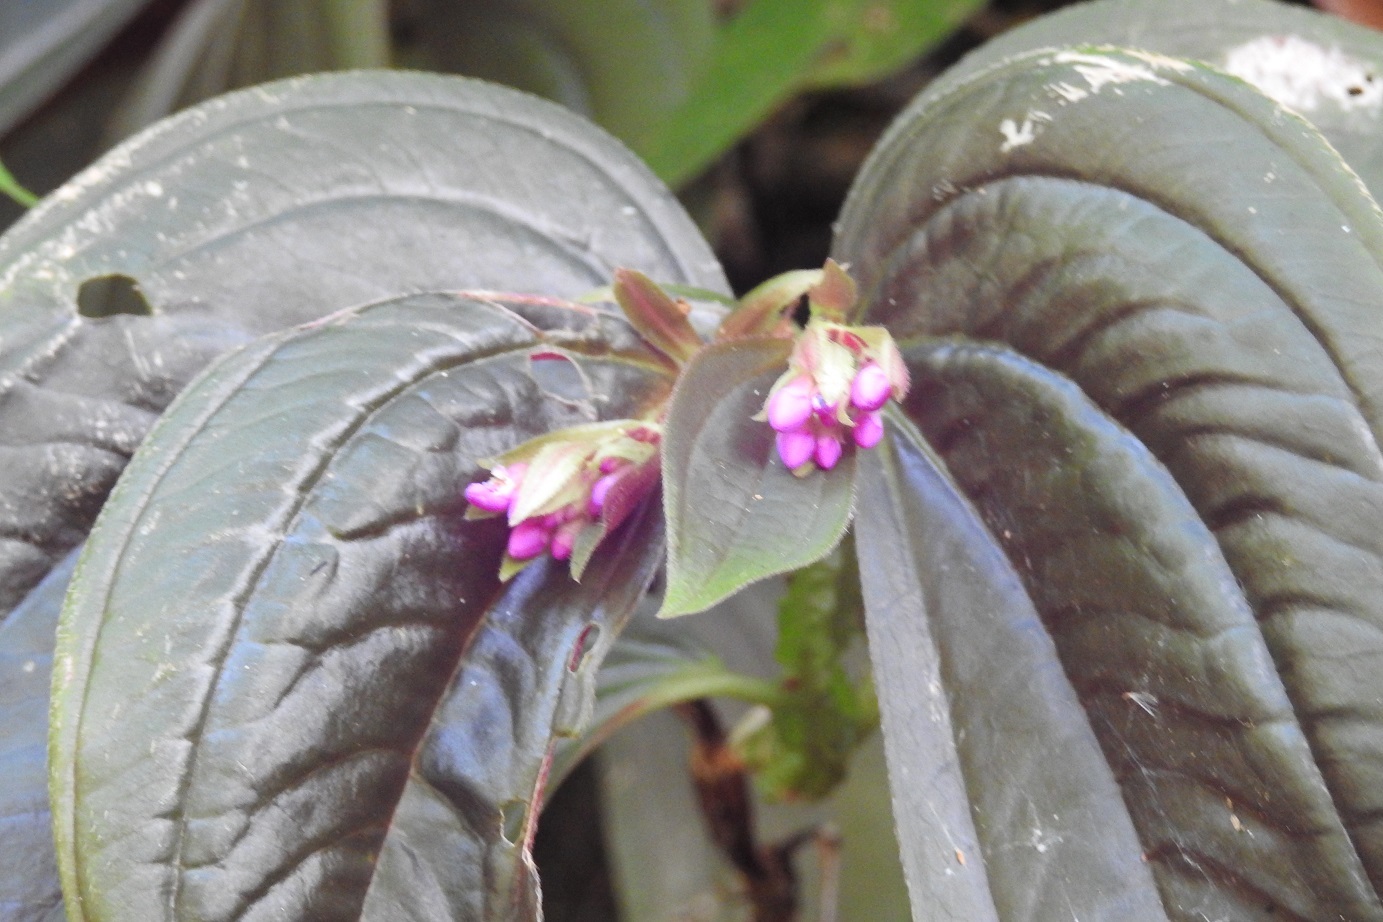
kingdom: Plantae
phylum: Tracheophyta
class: Magnoliopsida
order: Myrtales
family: Melastomataceae
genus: Centradenia
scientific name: Centradenia grandifolia
